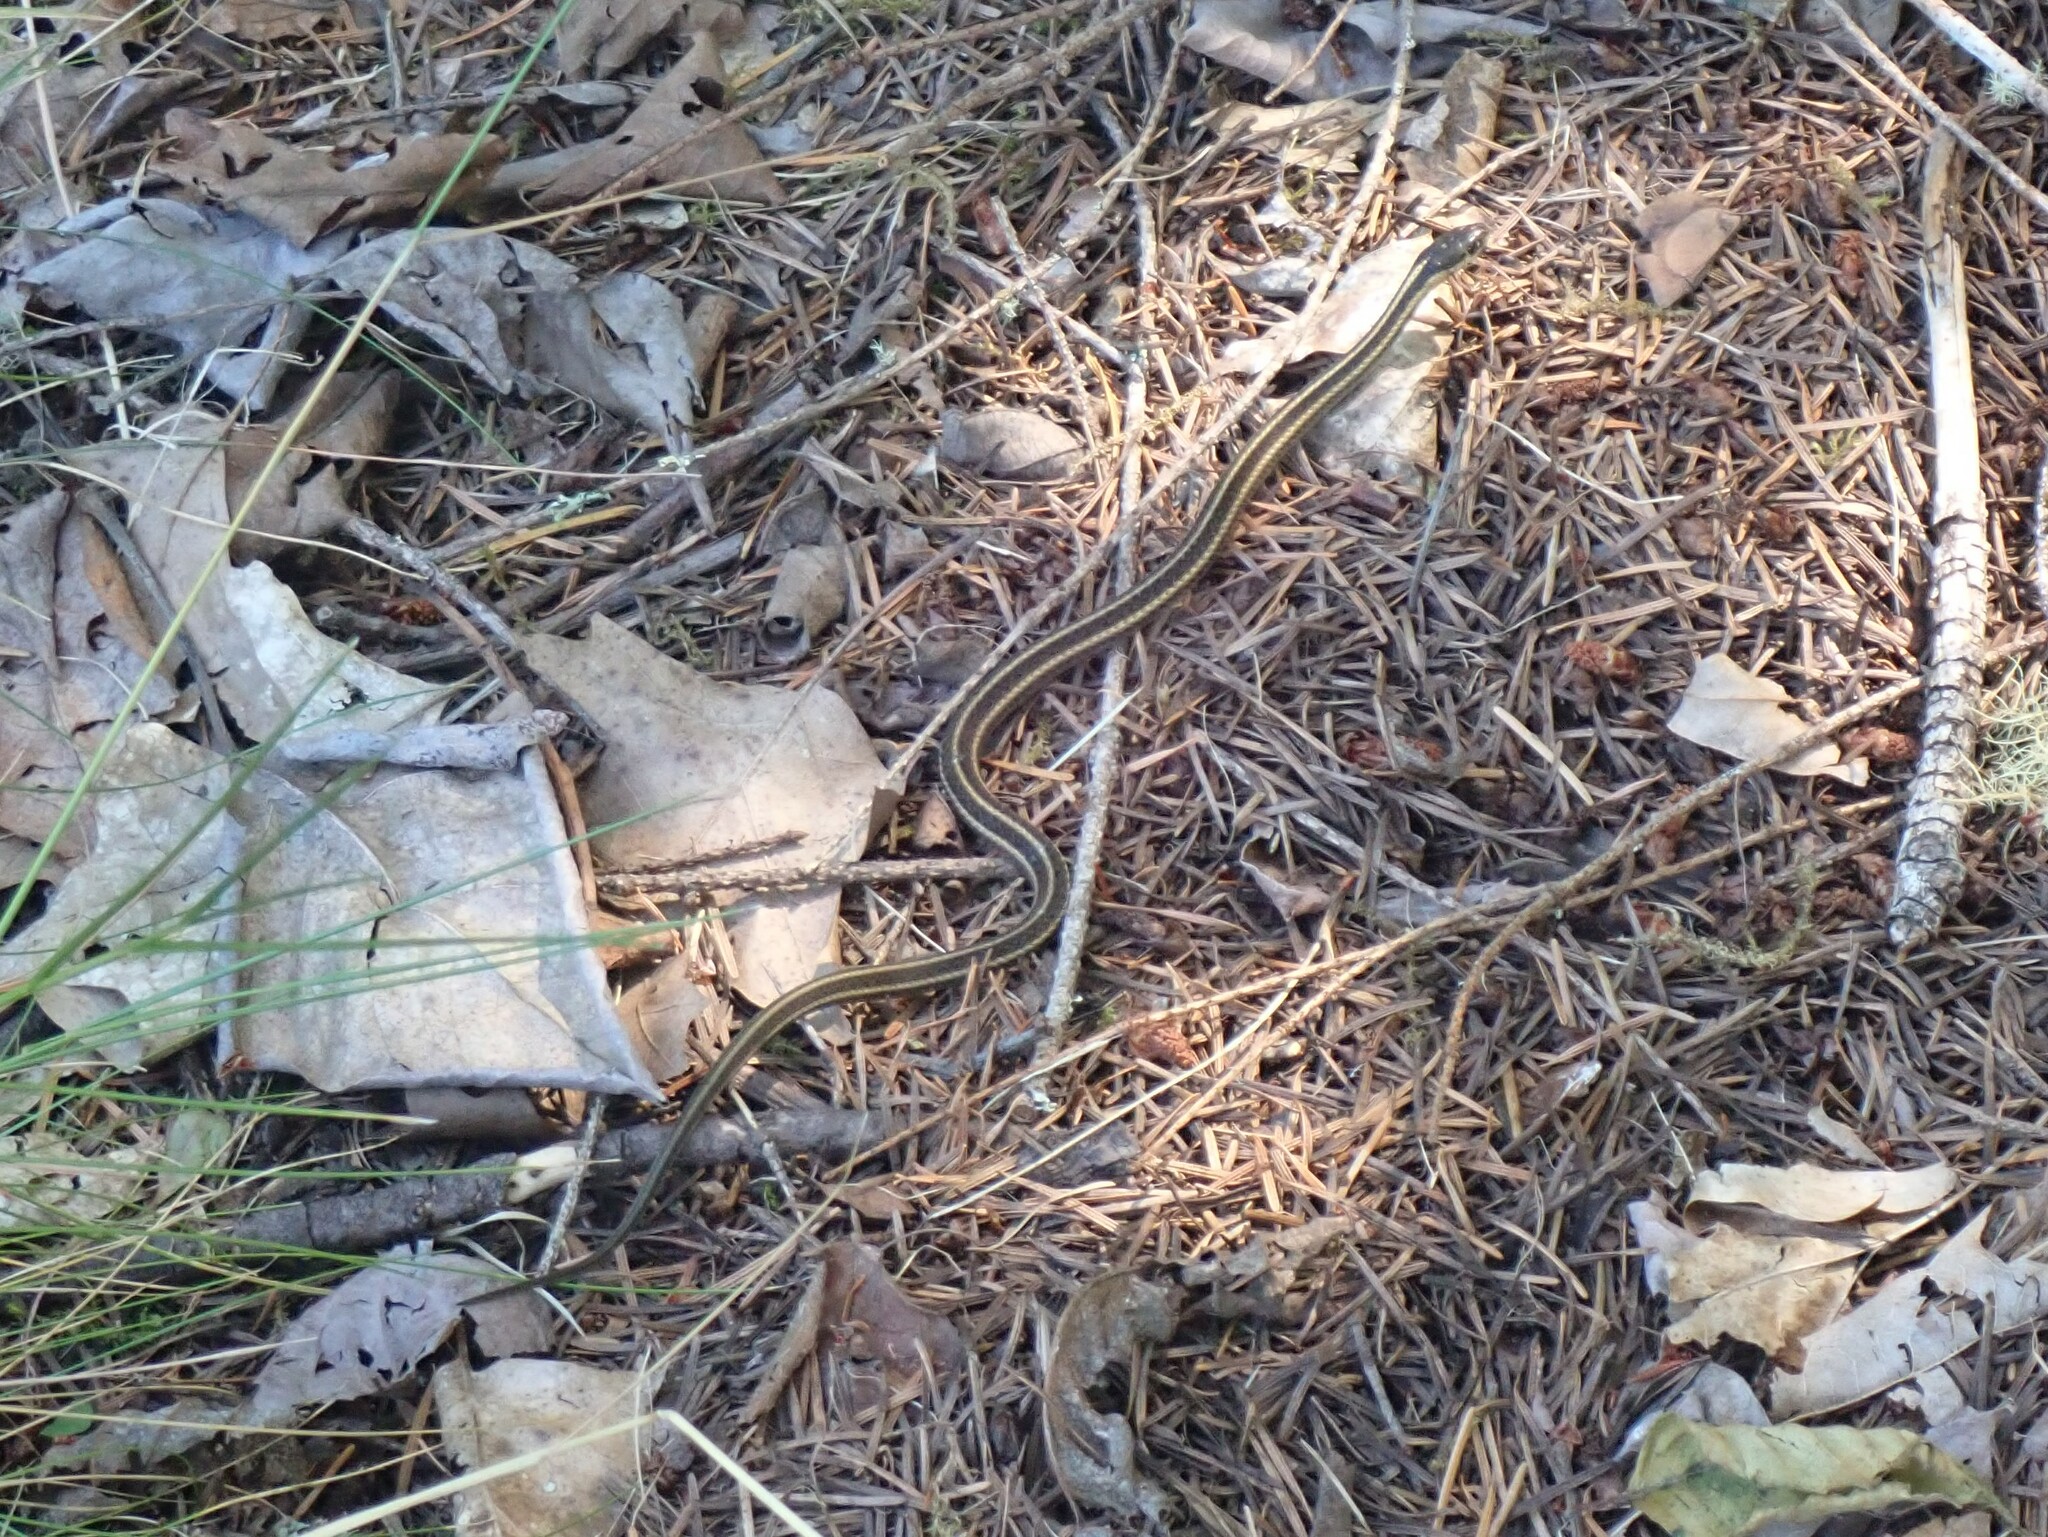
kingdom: Animalia
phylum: Chordata
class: Squamata
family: Colubridae
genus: Thamnophis
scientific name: Thamnophis ordinoides
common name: Northwestern garter snake
